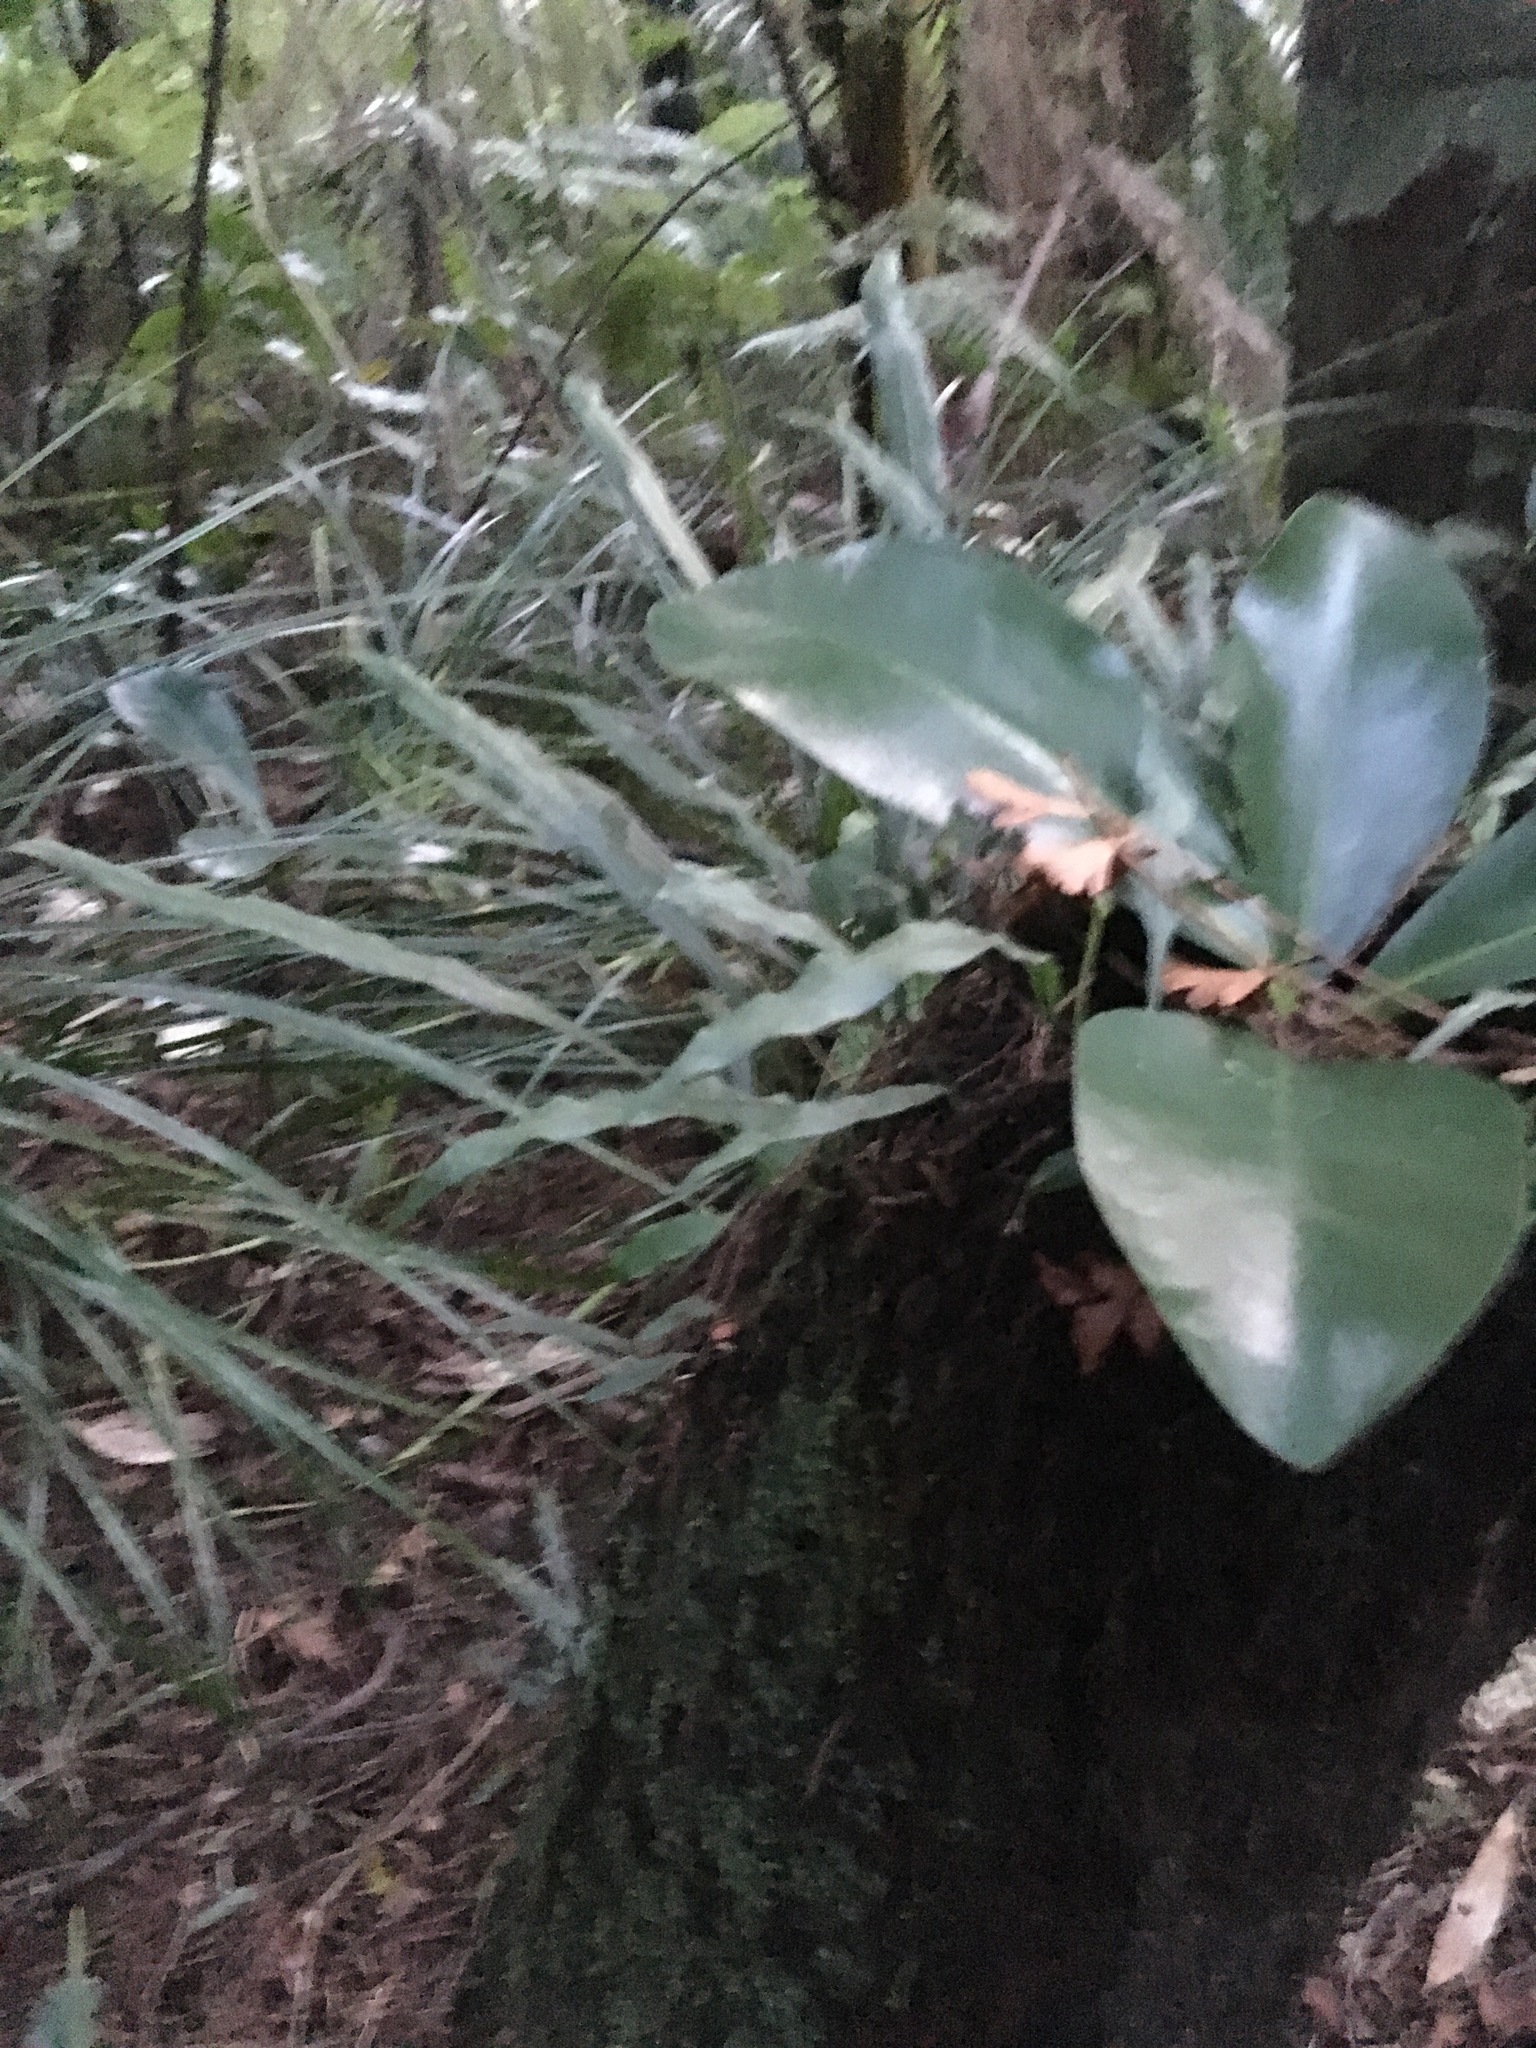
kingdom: Plantae
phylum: Tracheophyta
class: Polypodiopsida
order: Polypodiales
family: Polypodiaceae
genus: Lecanopteris
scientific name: Lecanopteris scandens
